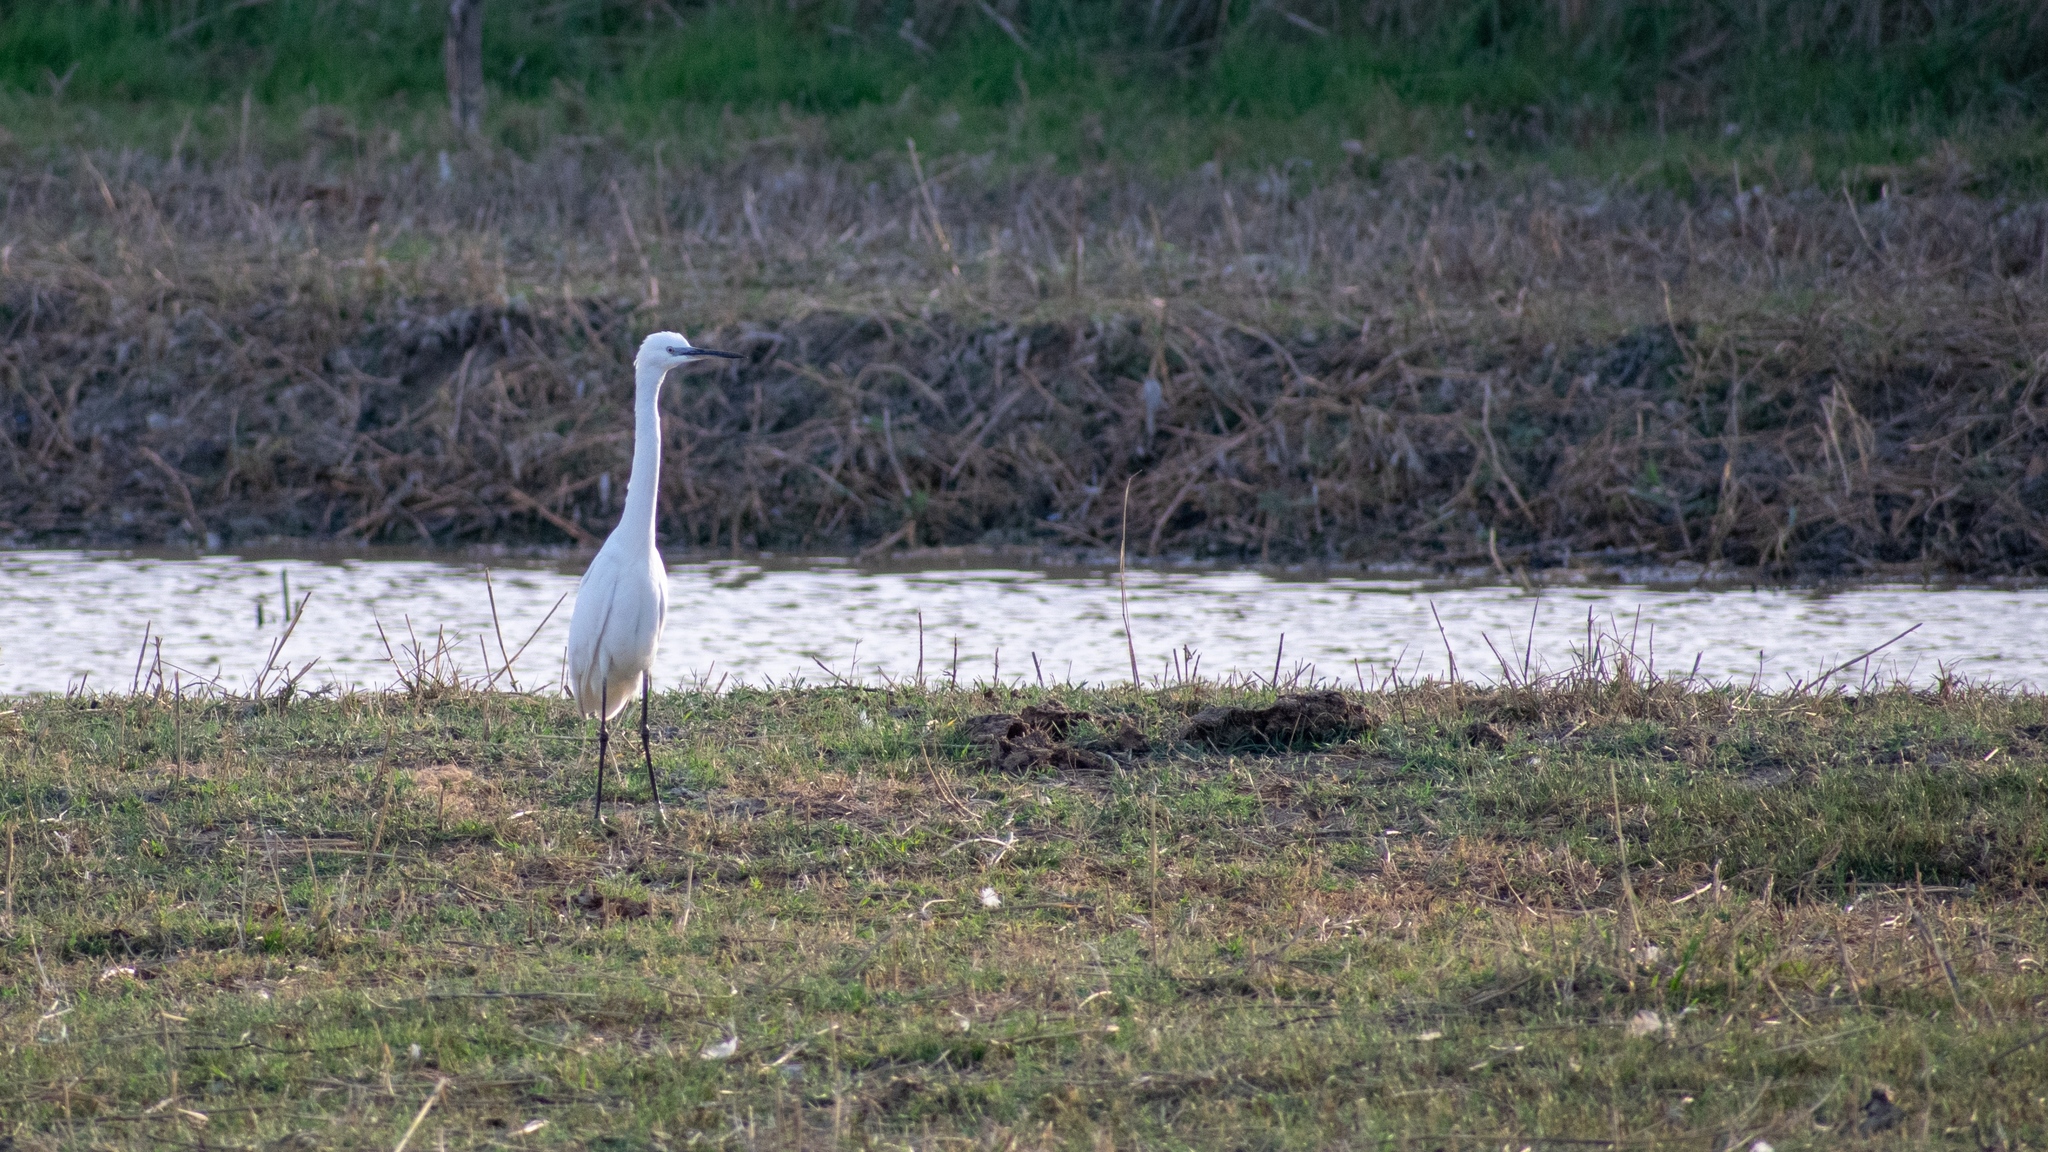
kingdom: Animalia
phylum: Chordata
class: Aves
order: Pelecaniformes
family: Ardeidae
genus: Egretta
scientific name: Egretta garzetta
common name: Little egret
